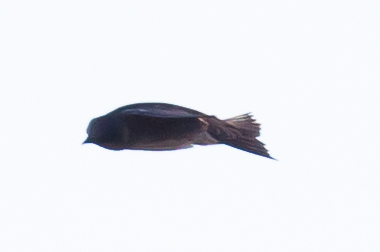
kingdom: Animalia
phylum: Chordata
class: Aves
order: Passeriformes
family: Hirundinidae
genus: Progne
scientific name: Progne subis
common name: Purple martin
